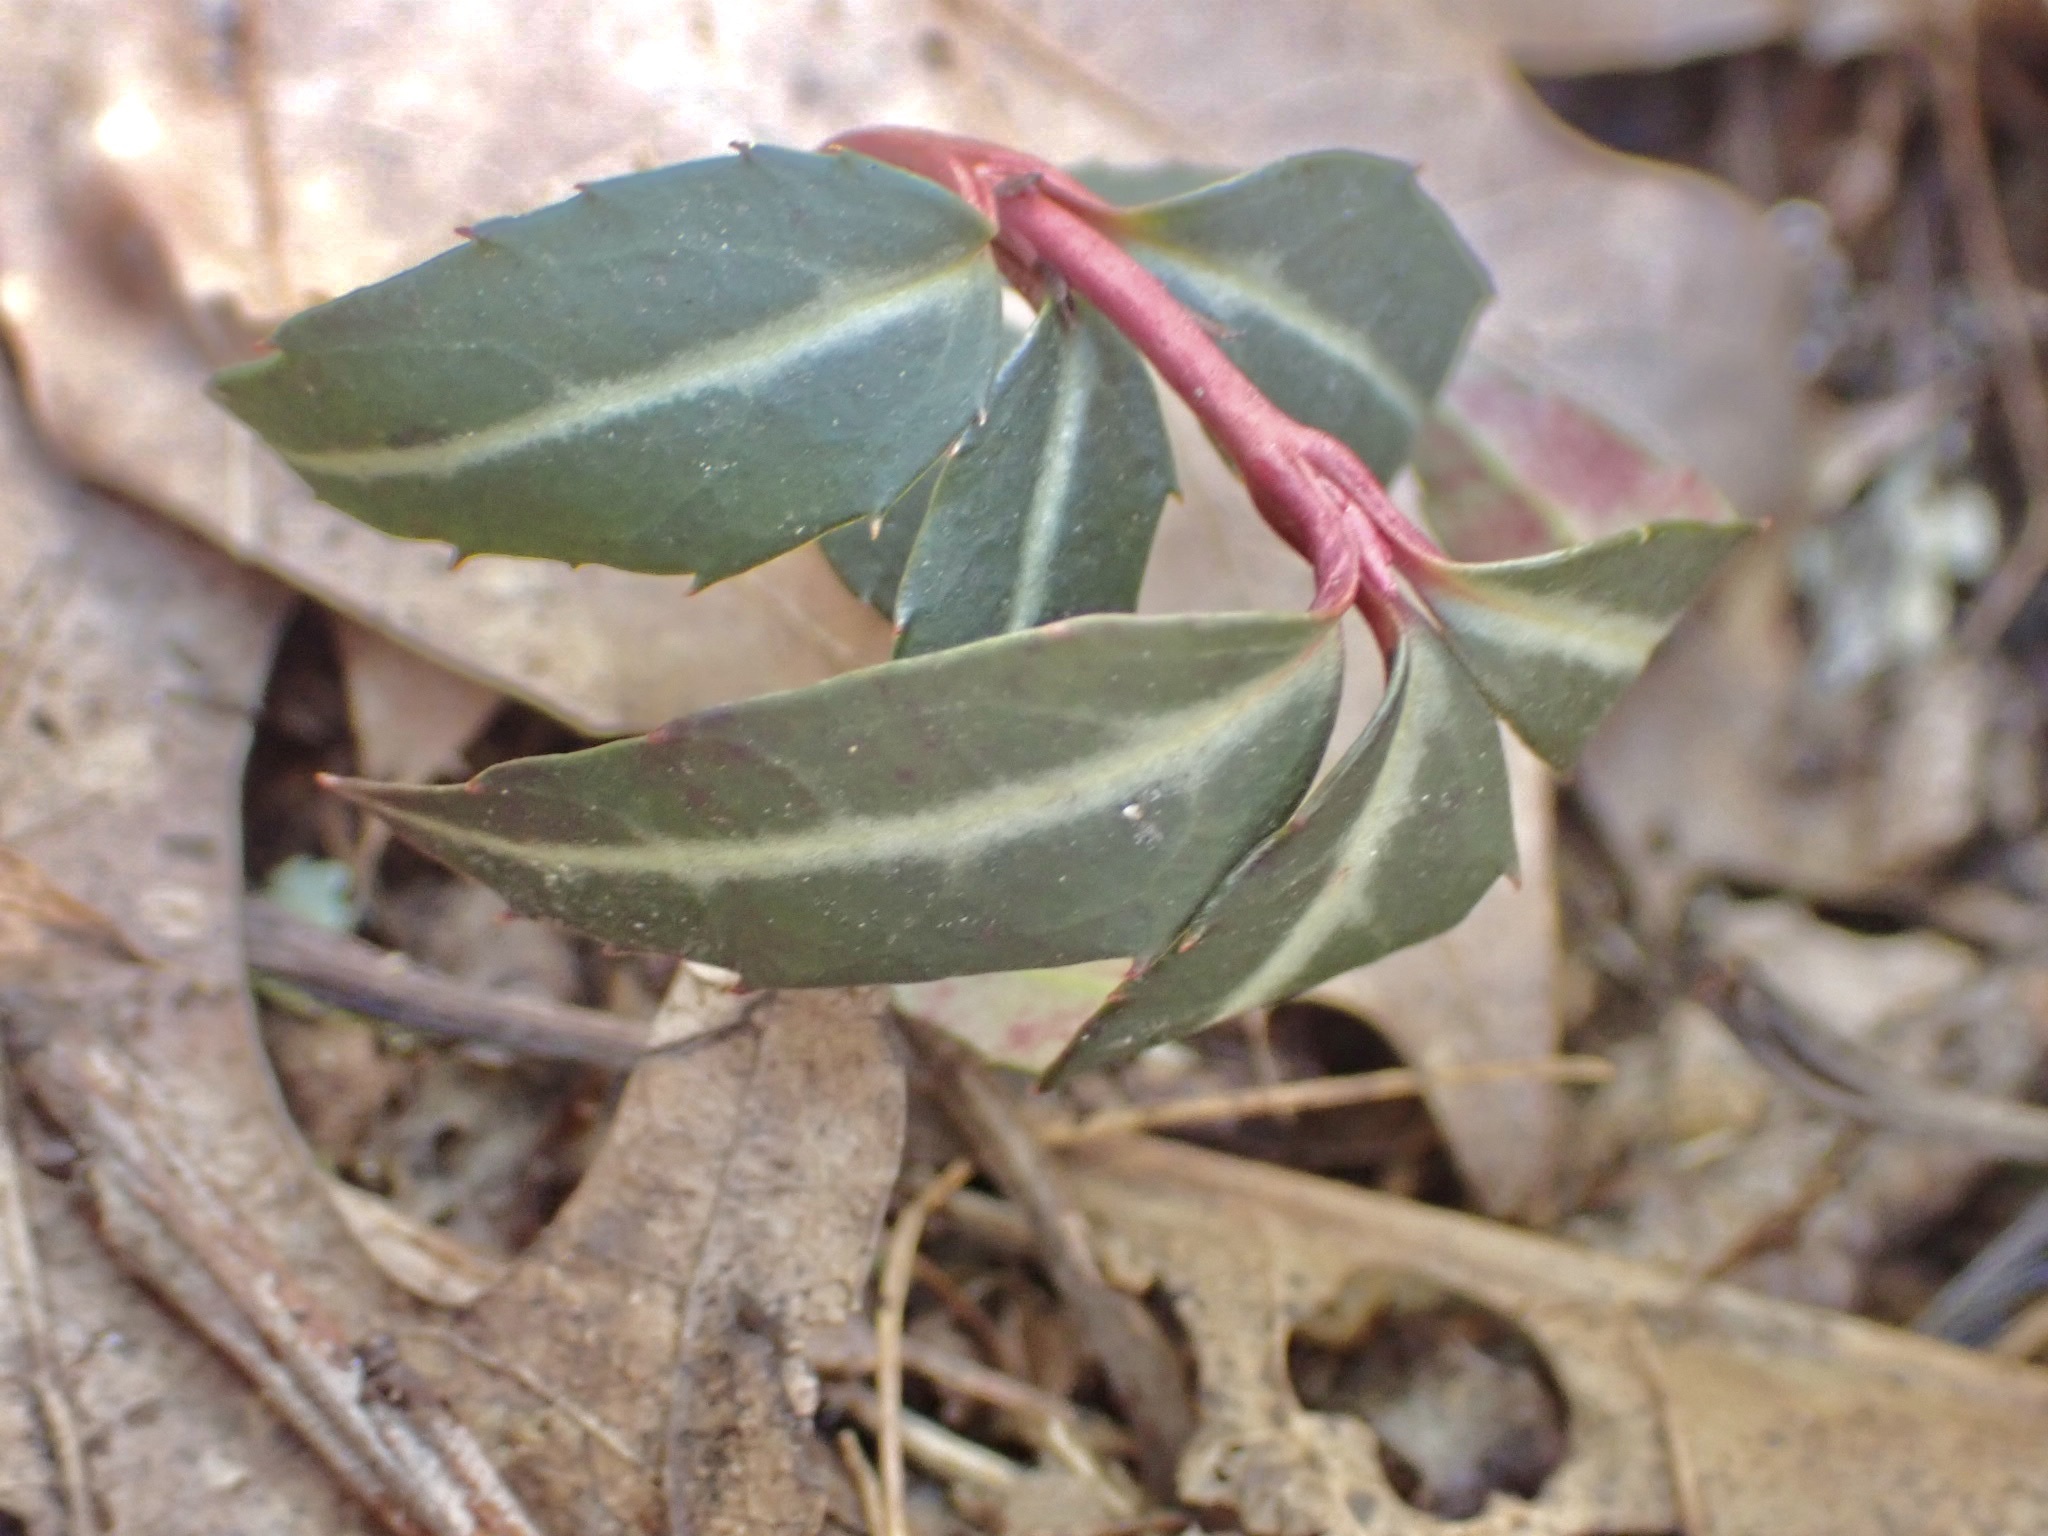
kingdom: Plantae
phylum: Tracheophyta
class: Magnoliopsida
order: Ericales
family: Ericaceae
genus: Chimaphila
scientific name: Chimaphila maculata
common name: Spotted pipsissewa
